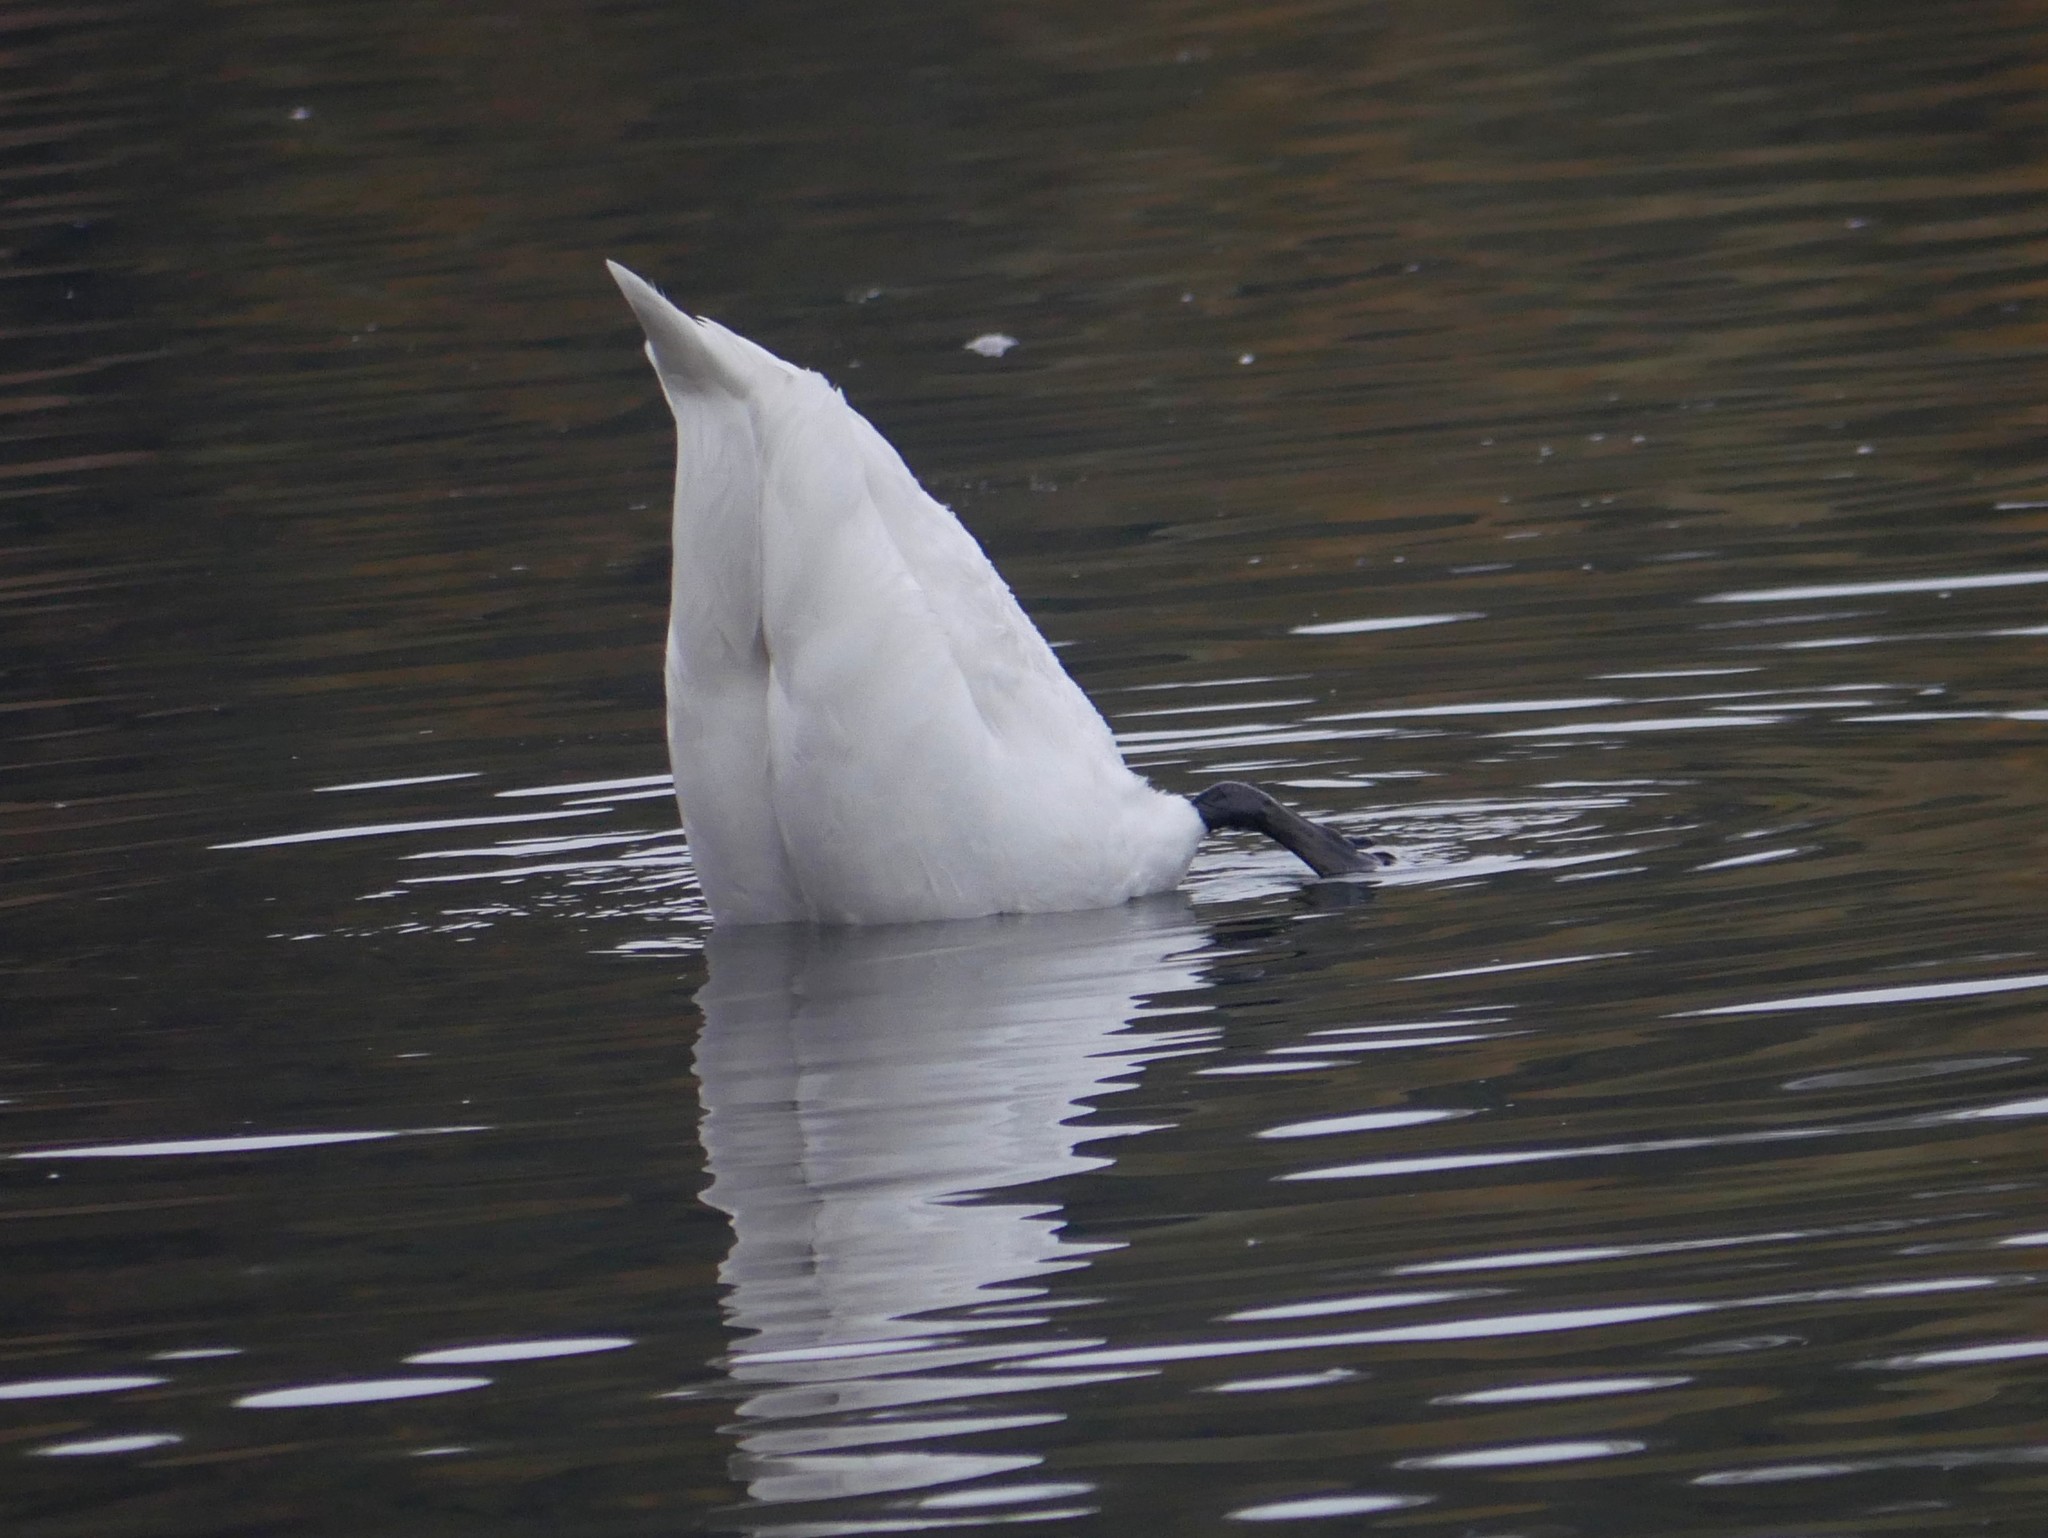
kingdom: Animalia
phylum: Chordata
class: Aves
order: Anseriformes
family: Anatidae
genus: Cygnus
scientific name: Cygnus olor
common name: Mute swan
